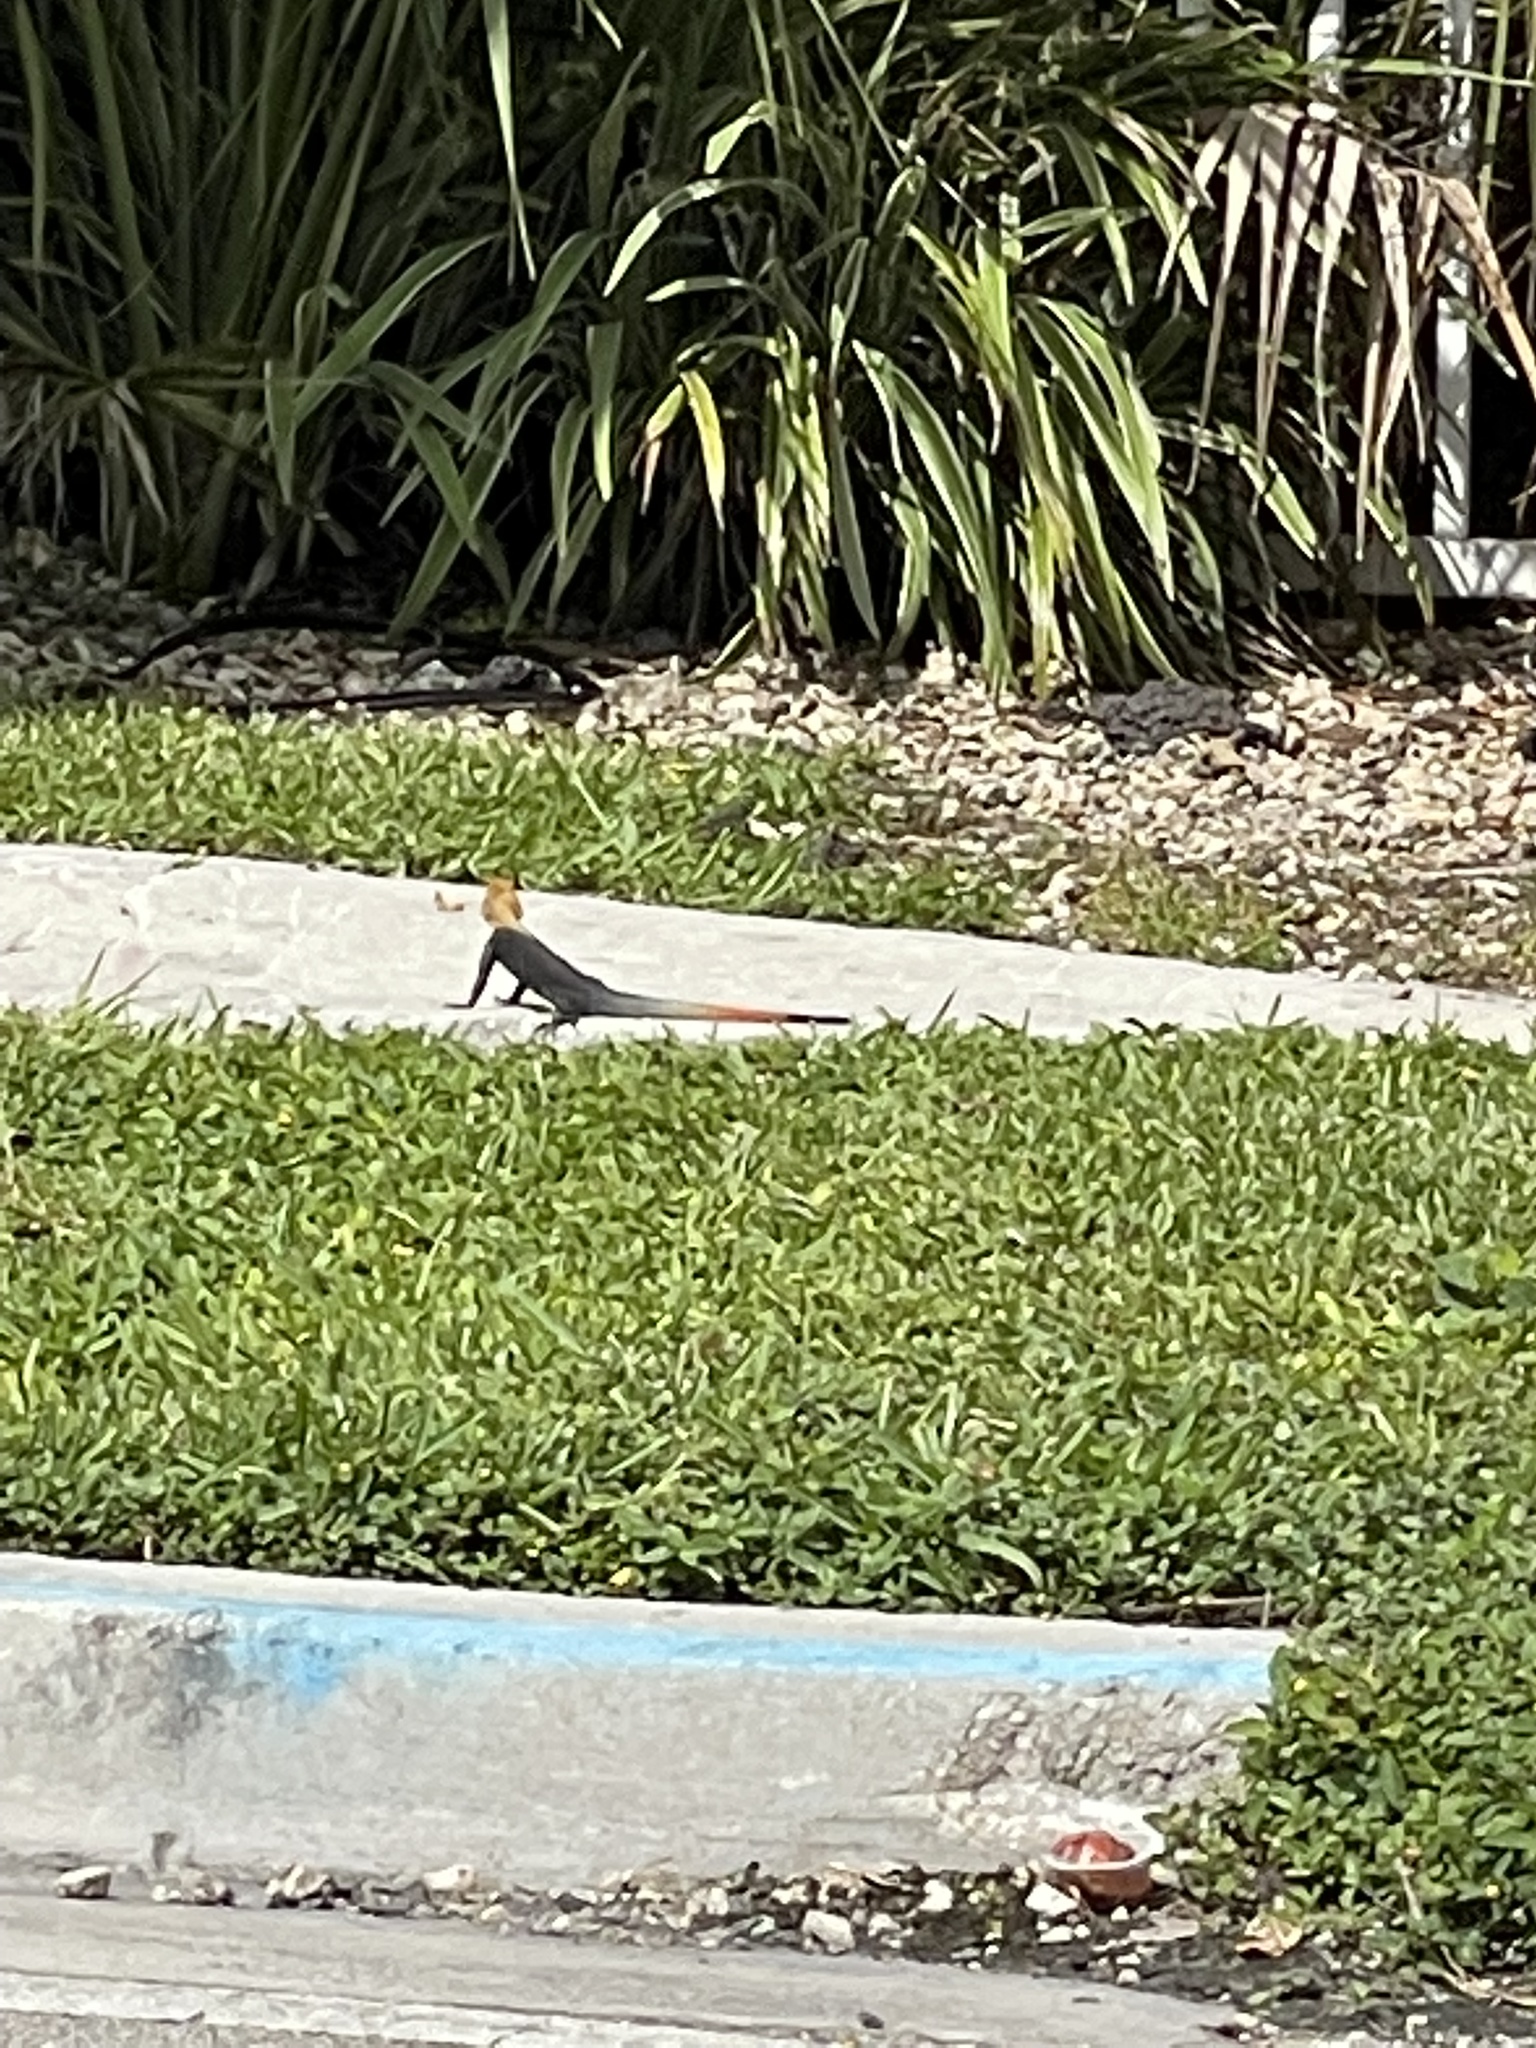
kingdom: Animalia
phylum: Chordata
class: Squamata
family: Agamidae
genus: Agama
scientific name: Agama picticauda
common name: Red-headed agama
